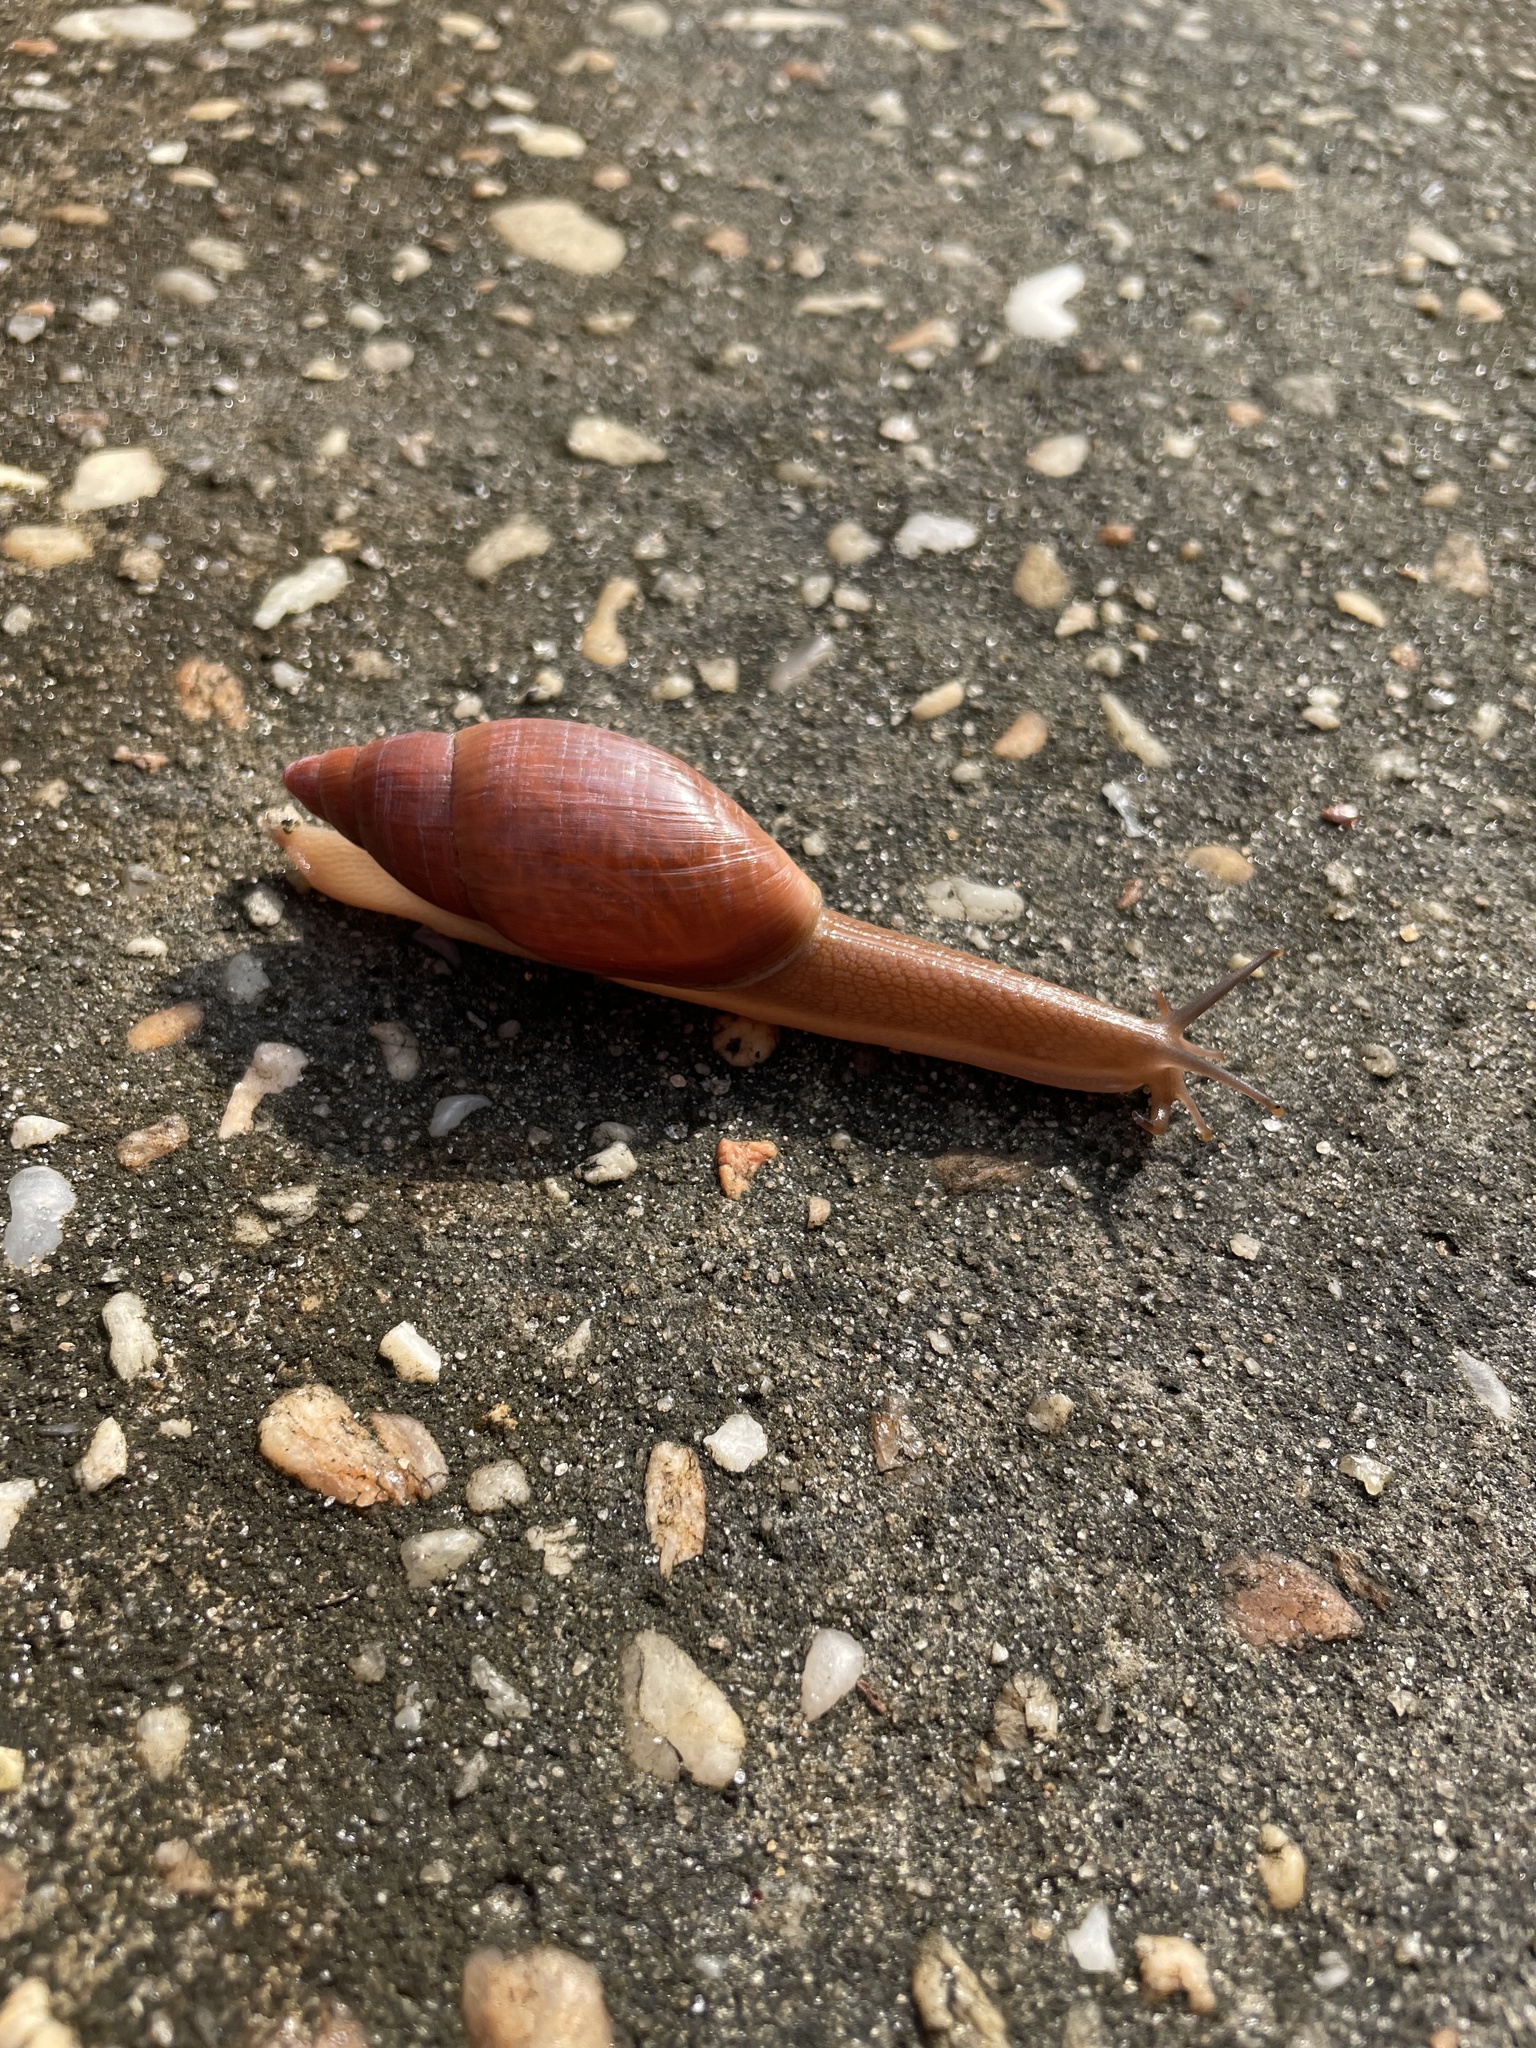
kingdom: Animalia
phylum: Mollusca
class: Gastropoda
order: Stylommatophora
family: Spiraxidae
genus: Euglandina
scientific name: Euglandina rosea
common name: Rosy wolfsnail
